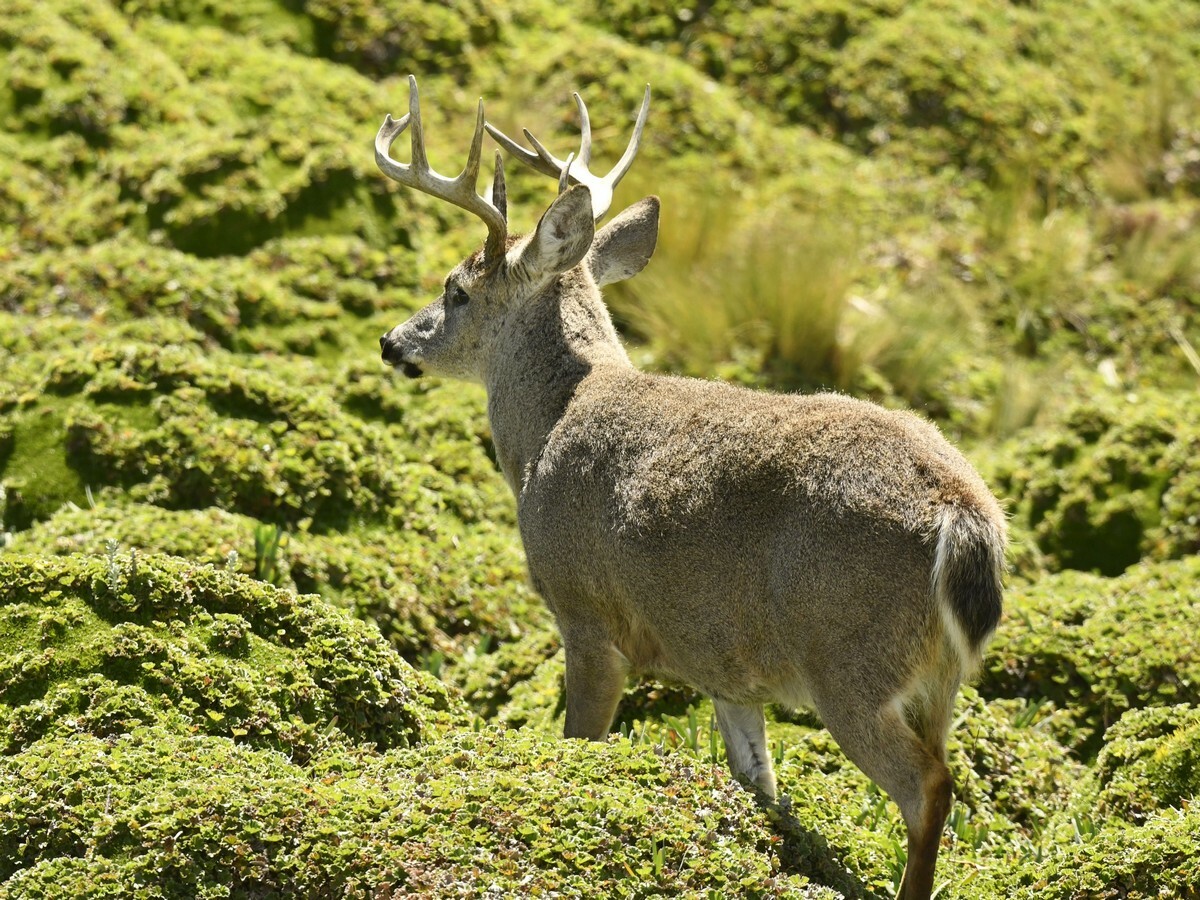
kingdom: Animalia
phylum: Chordata
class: Mammalia
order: Artiodactyla
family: Cervidae
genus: Odocoileus
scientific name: Odocoileus virginianus
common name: White-tailed deer
